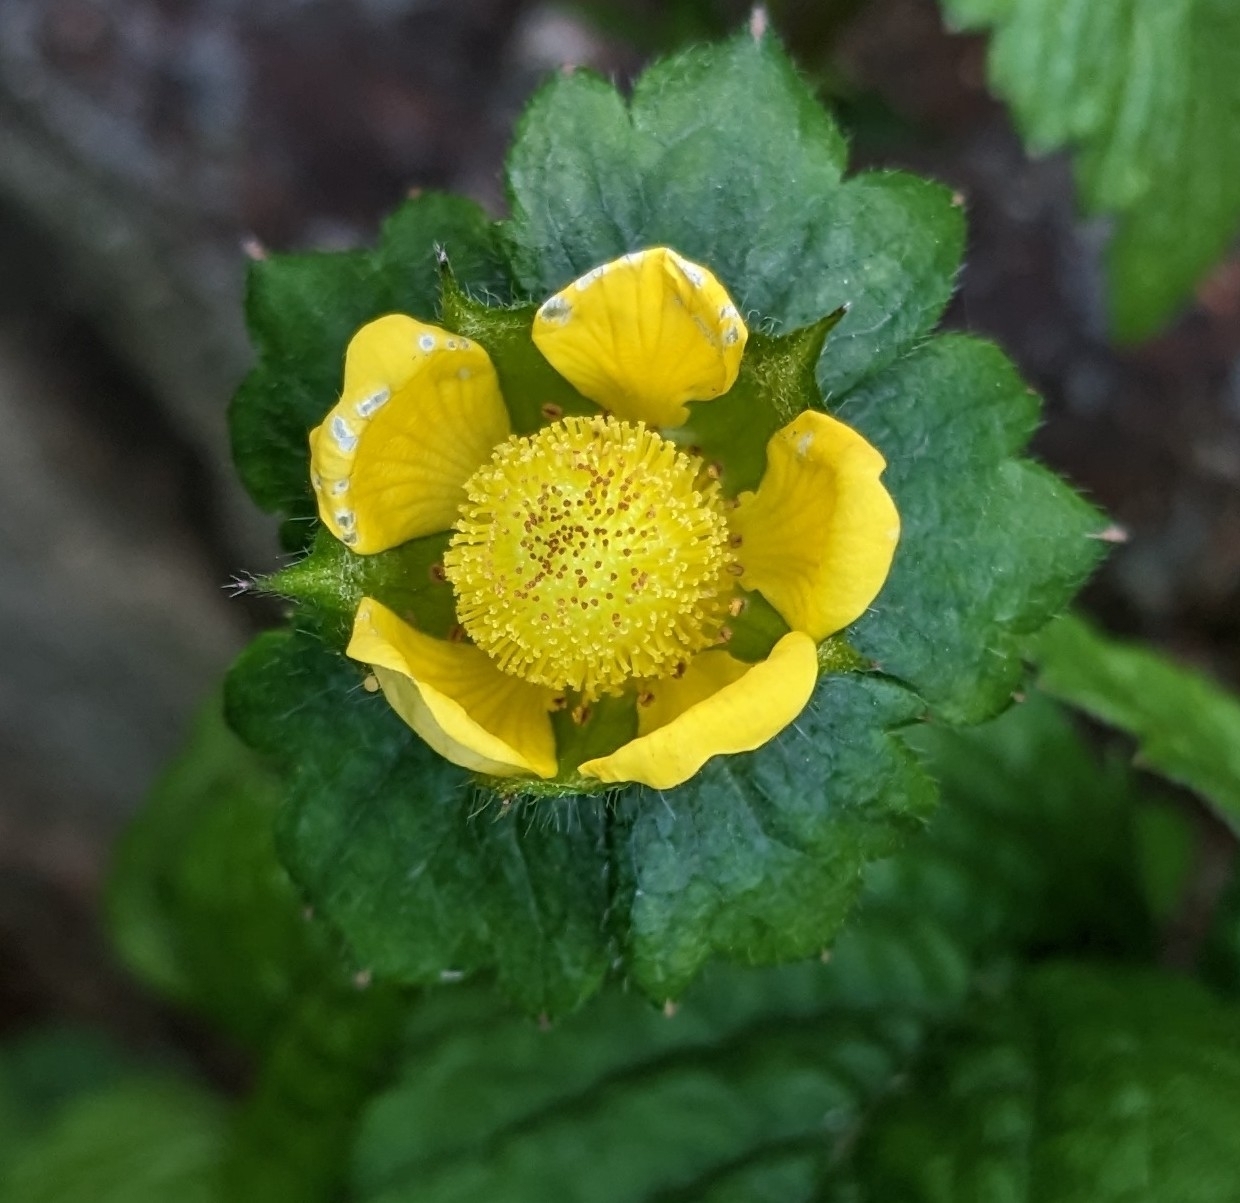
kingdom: Plantae
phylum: Tracheophyta
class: Magnoliopsida
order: Rosales
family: Rosaceae
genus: Potentilla
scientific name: Potentilla indica
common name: Yellow-flowered strawberry
